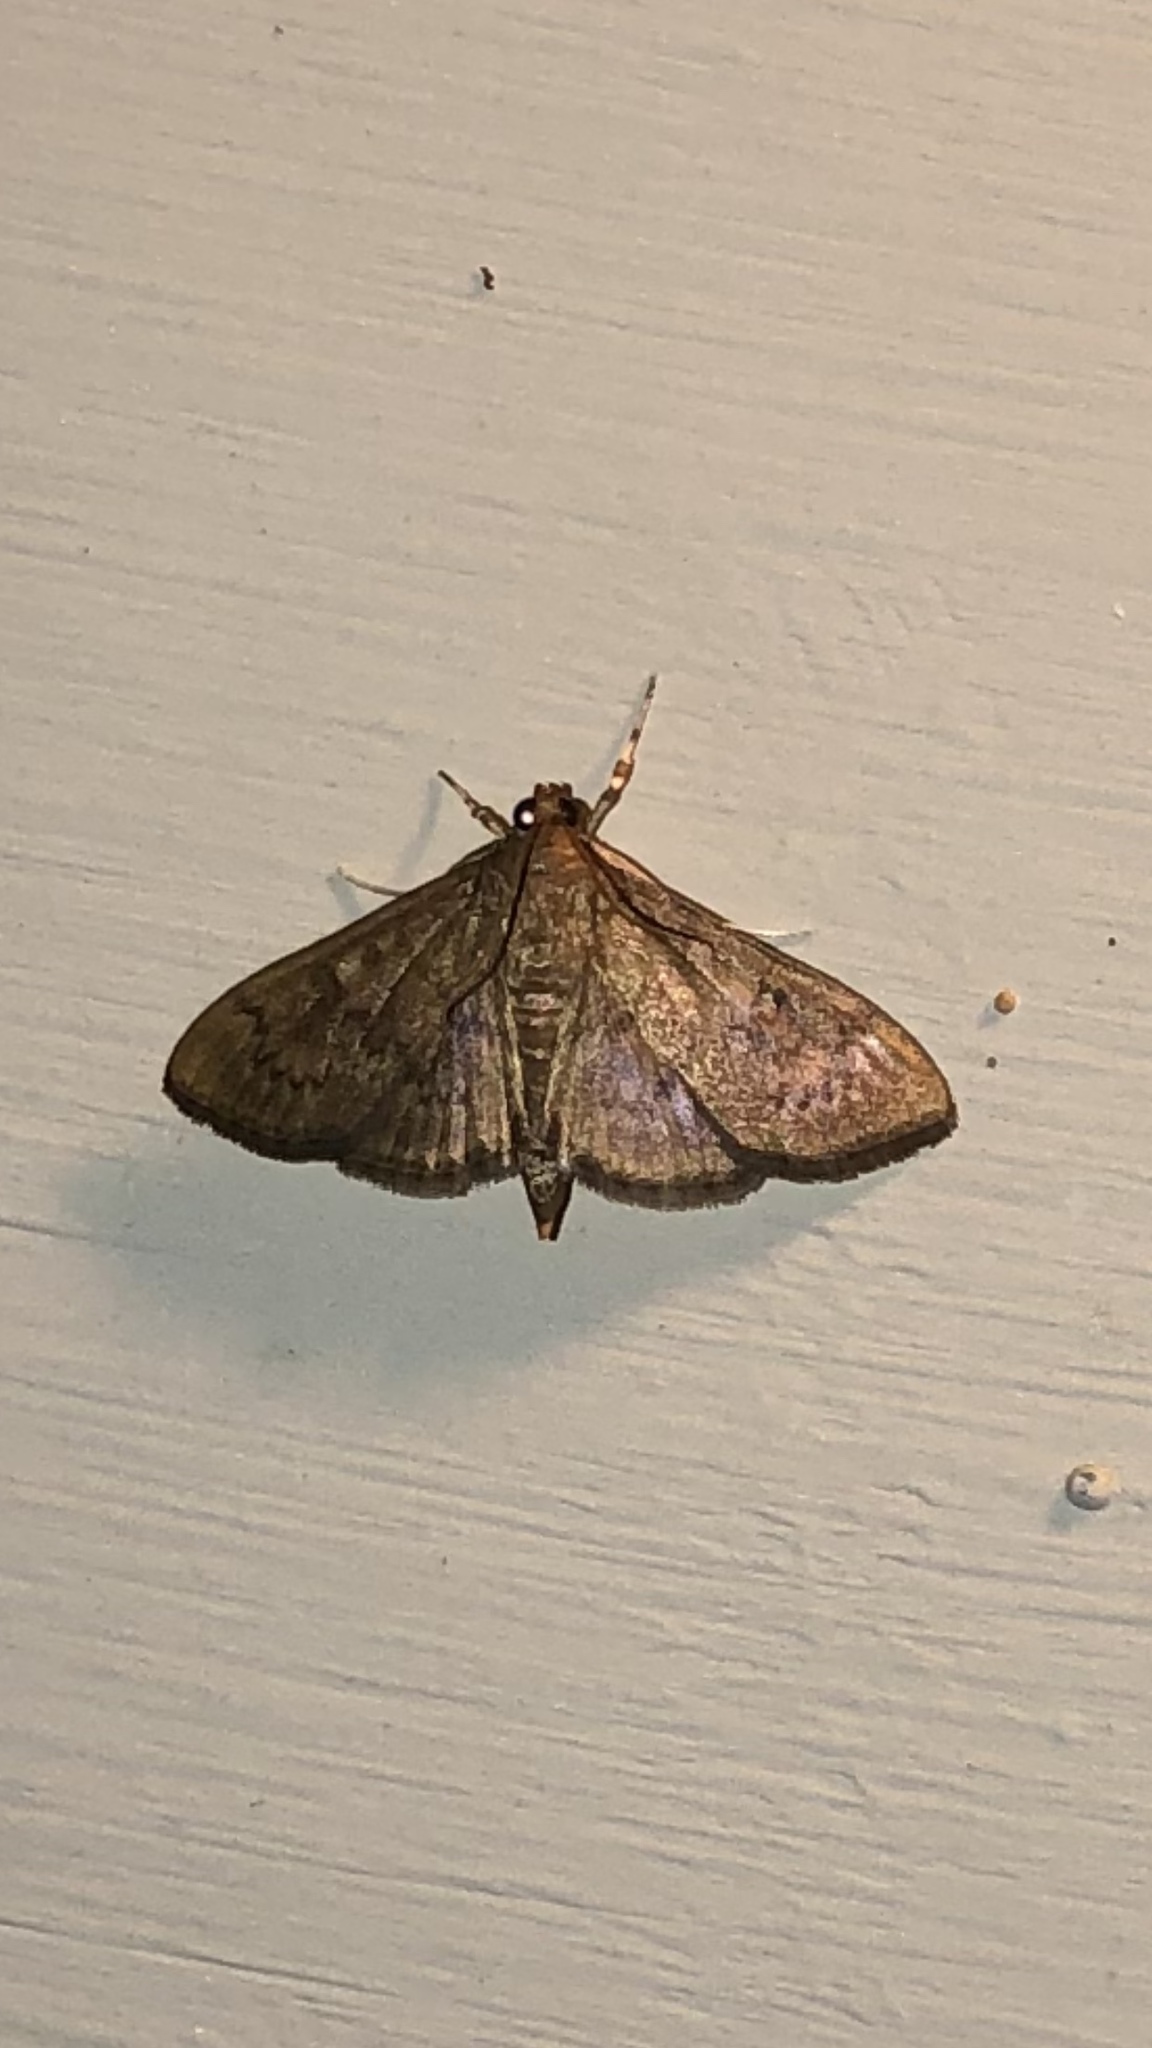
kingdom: Animalia
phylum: Arthropoda
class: Insecta
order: Lepidoptera
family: Crambidae
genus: Syllepte
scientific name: Syllepte obscuralis
